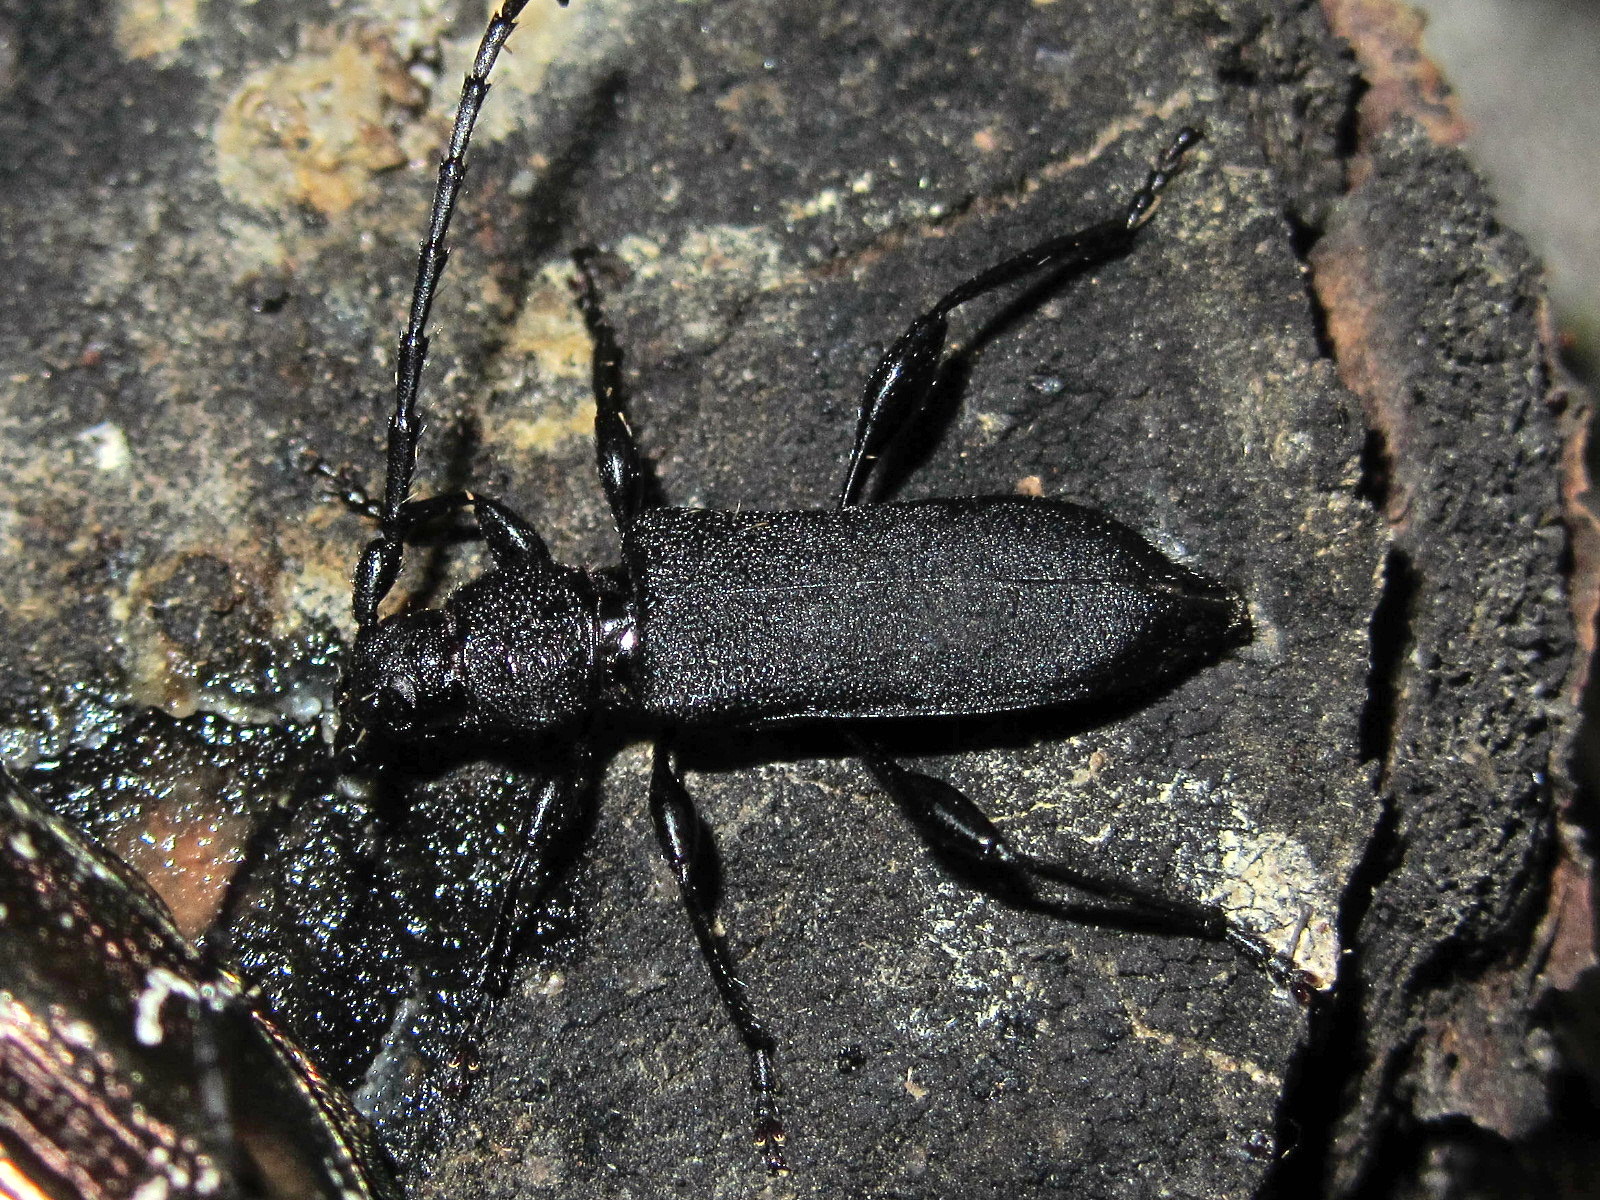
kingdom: Animalia
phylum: Arthropoda
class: Insecta
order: Coleoptera
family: Cerambycidae
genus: Ropalopus
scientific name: Ropalopus clavipes
